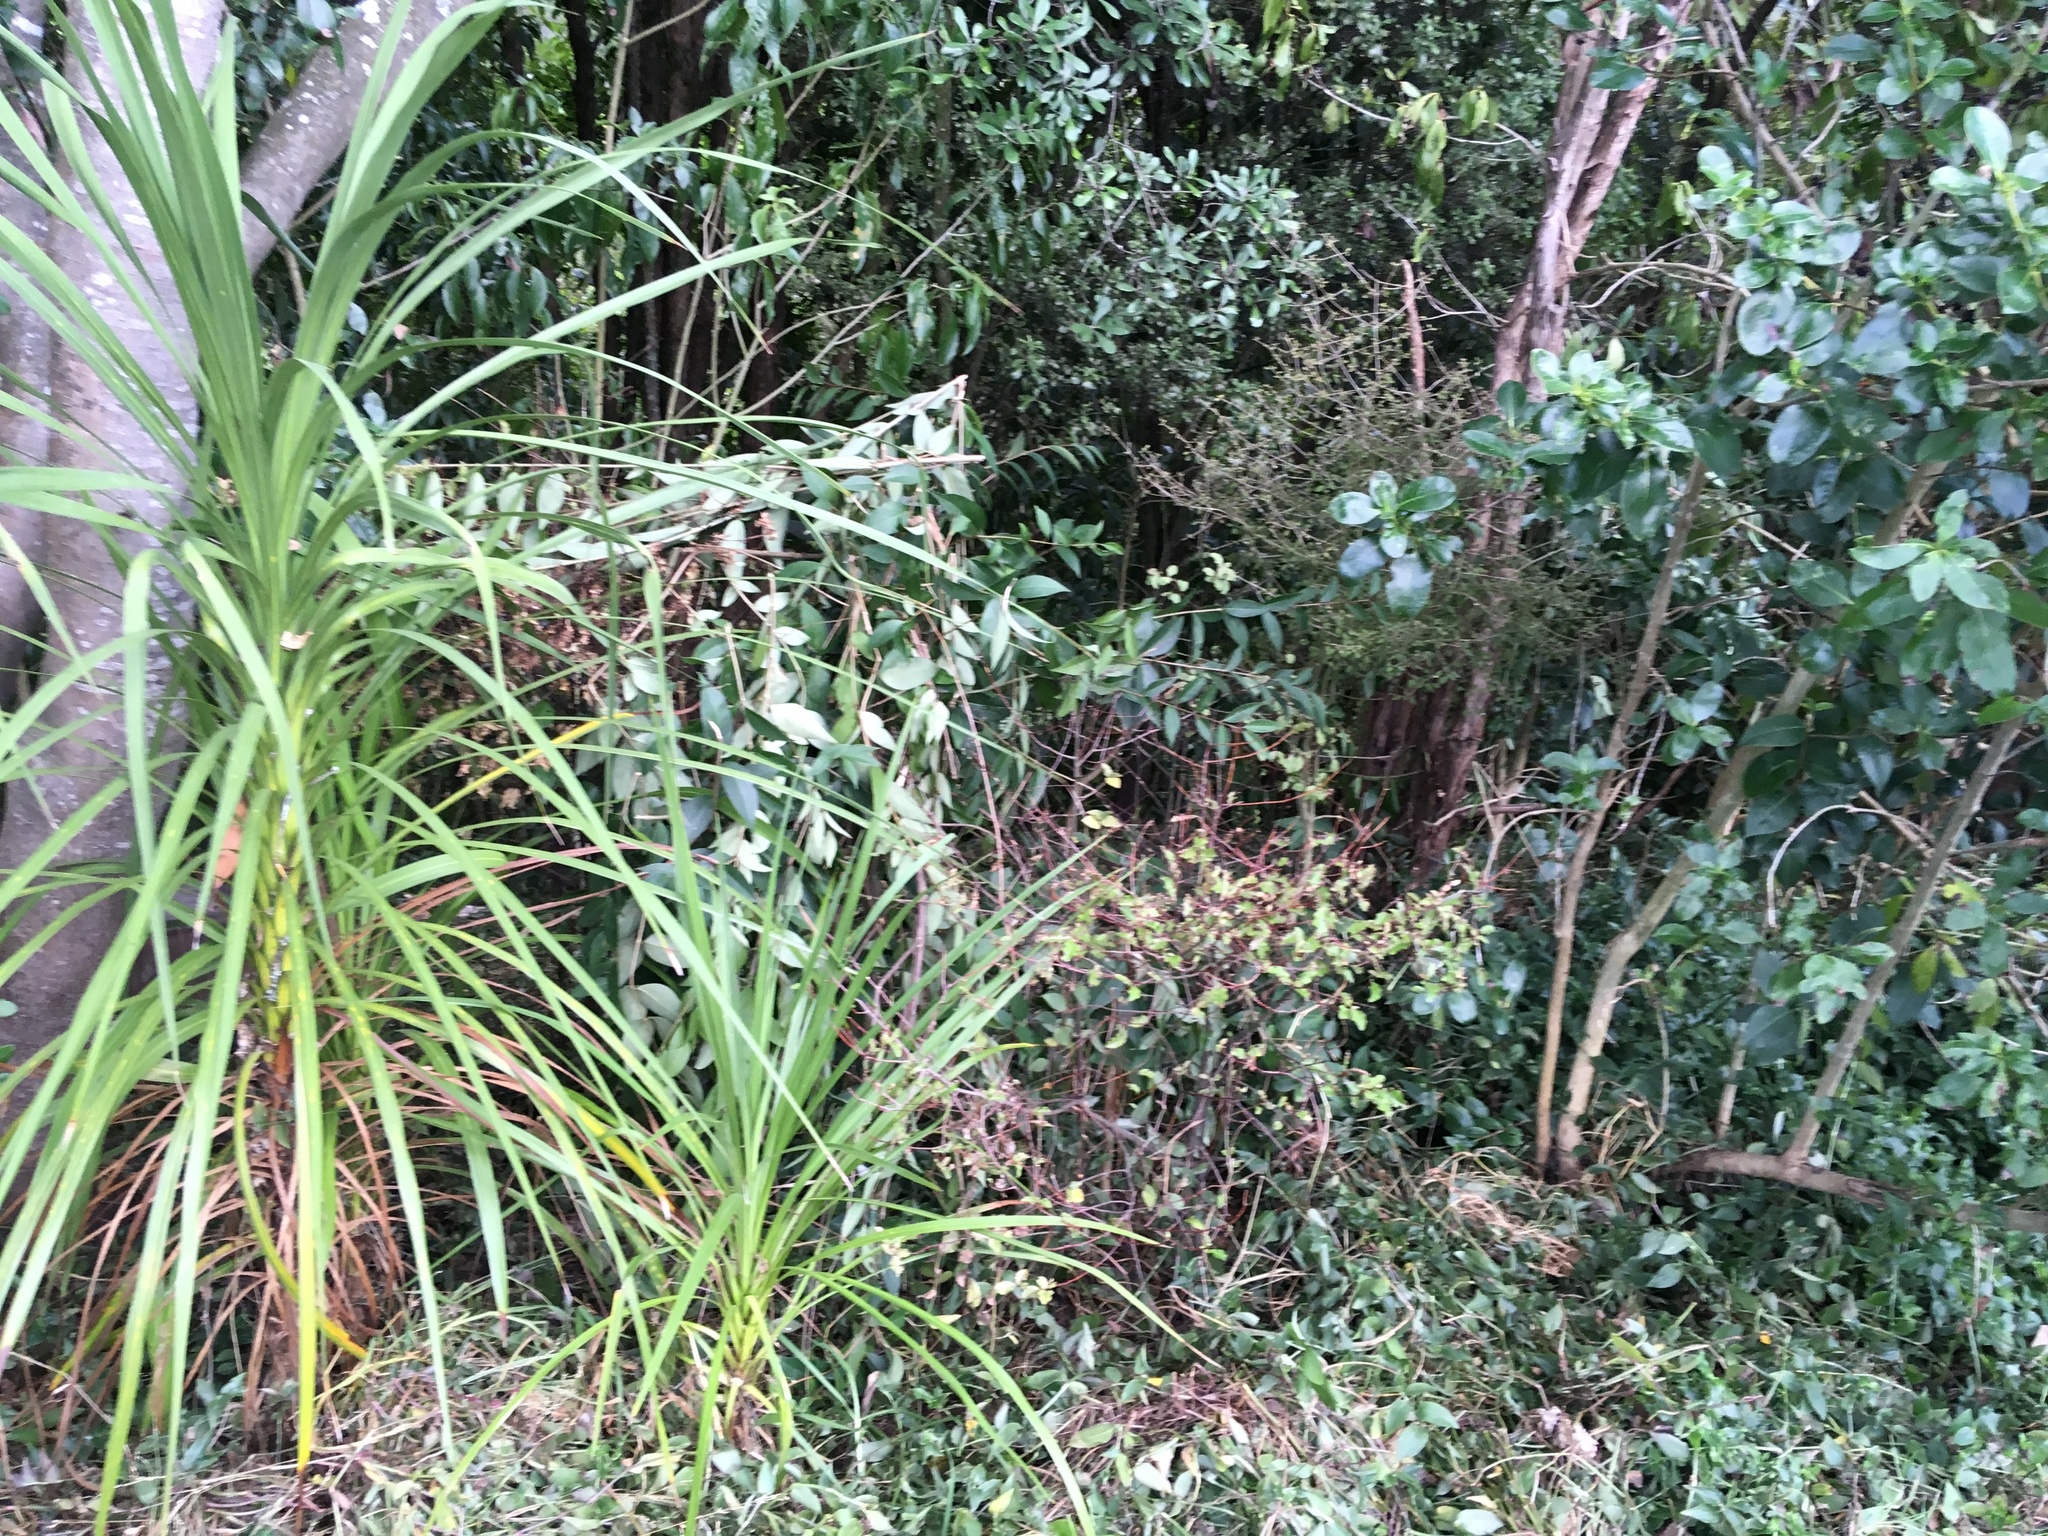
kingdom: Plantae
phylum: Tracheophyta
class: Magnoliopsida
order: Ericales
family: Primulaceae
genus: Myrsine
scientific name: Myrsine australis
